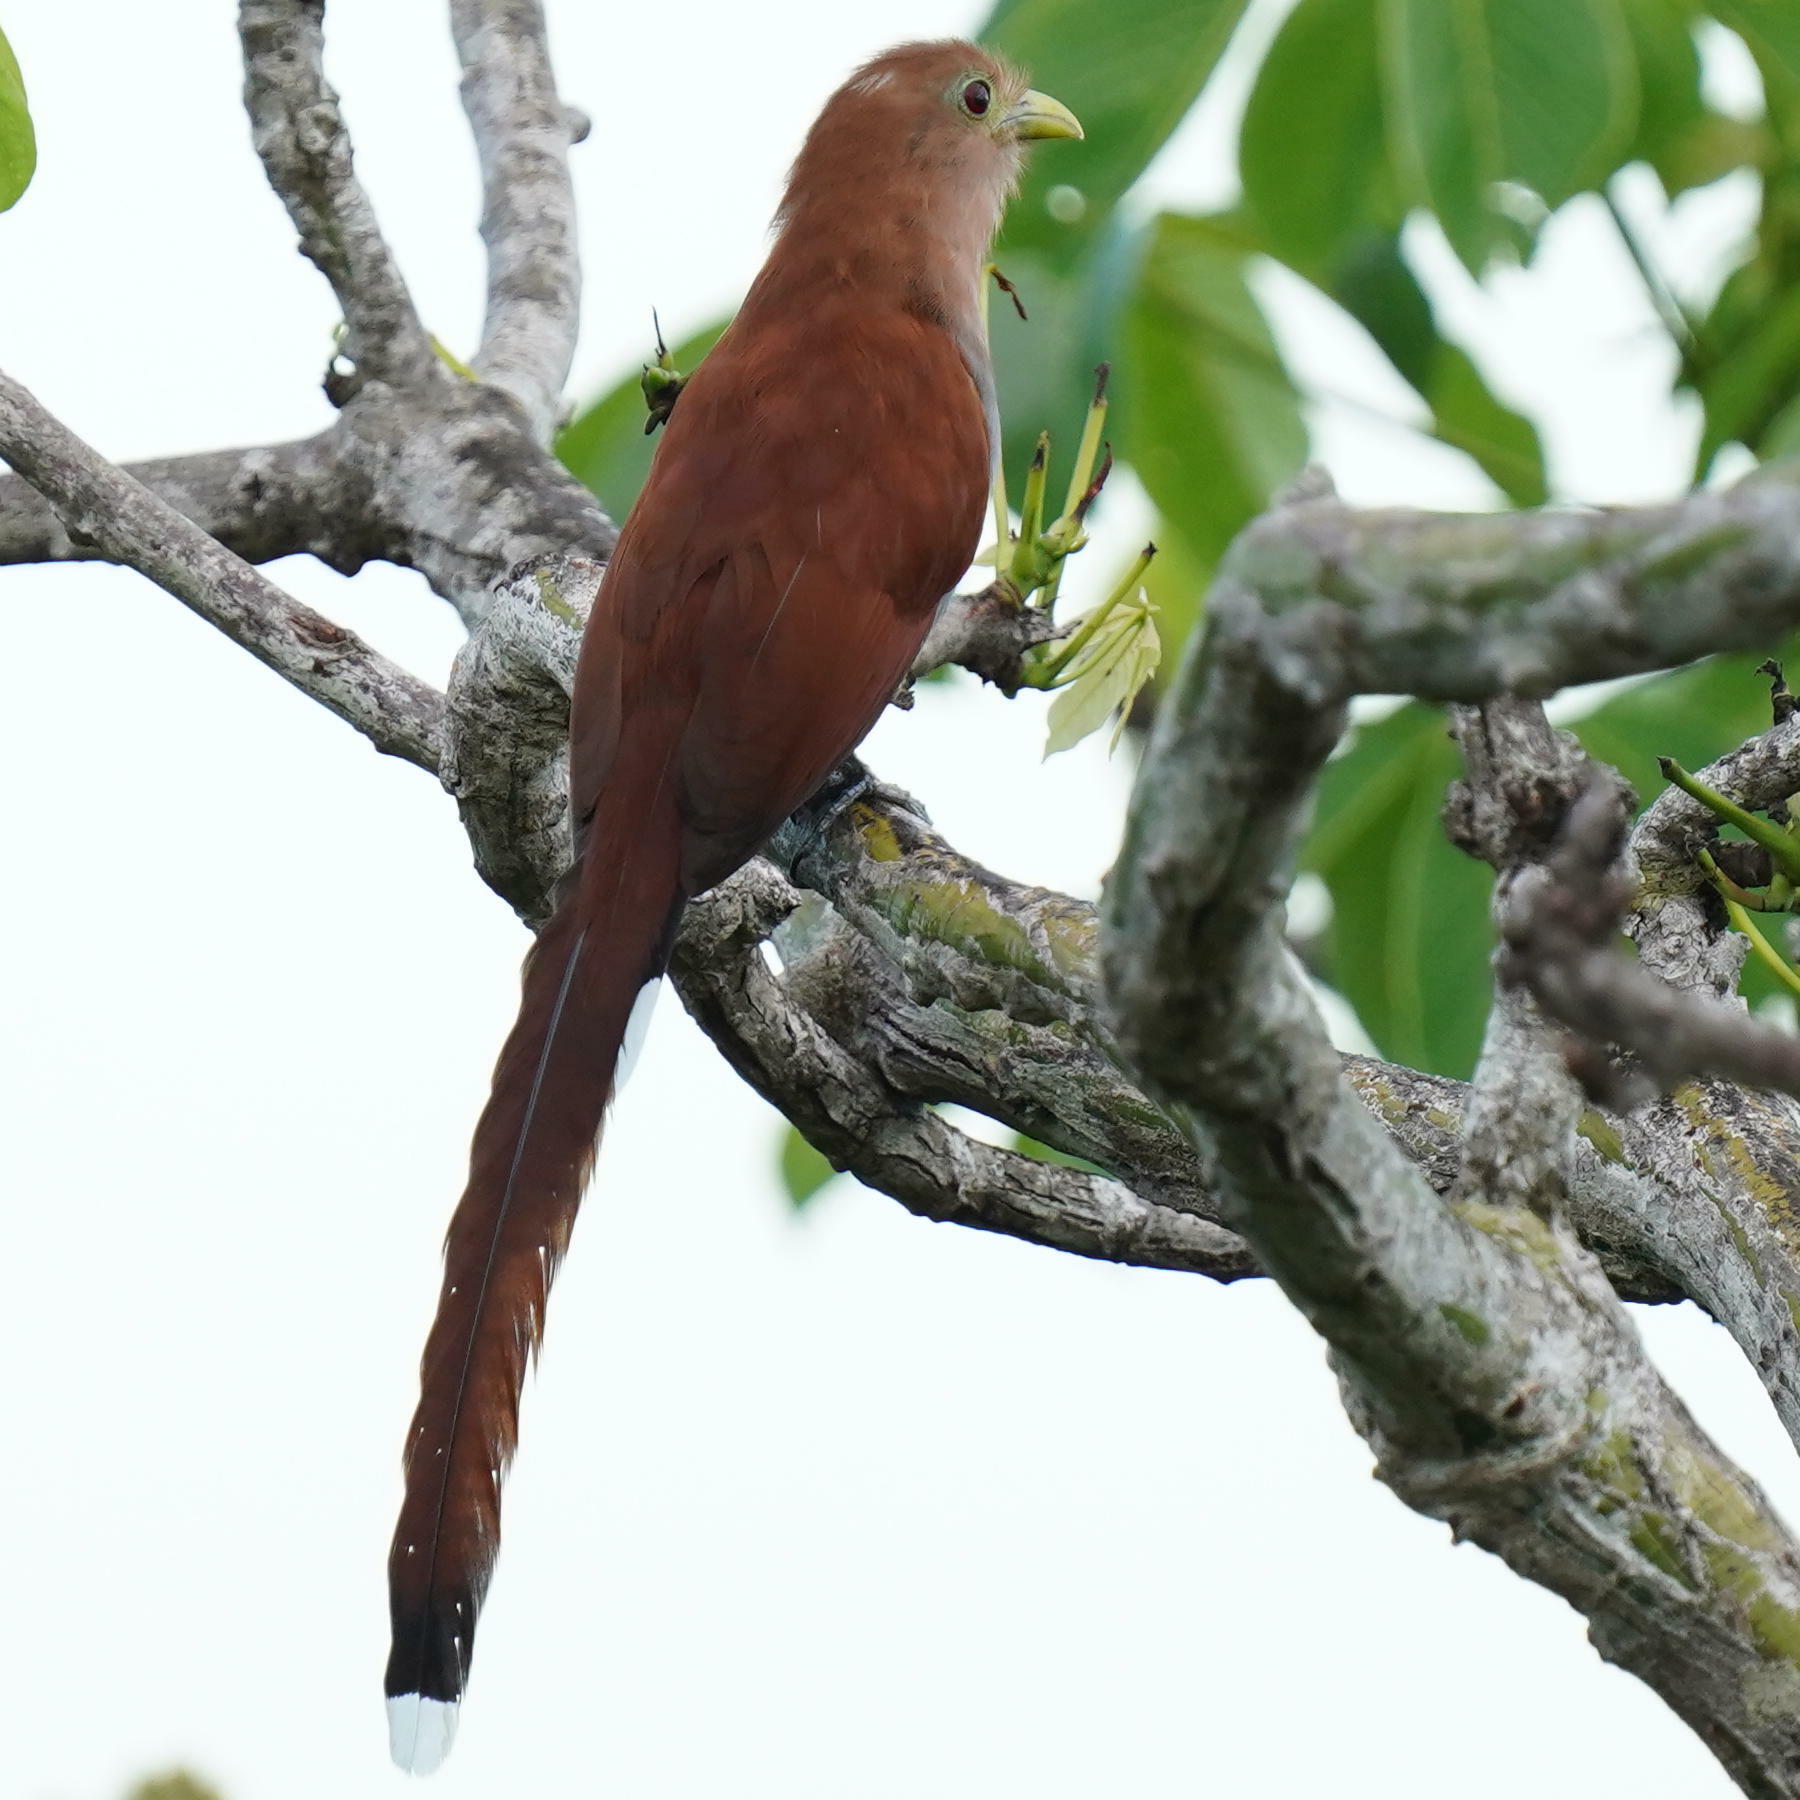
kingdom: Animalia
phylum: Chordata
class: Aves
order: Cuculiformes
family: Cuculidae
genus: Piaya
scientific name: Piaya cayana
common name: Squirrel cuckoo
